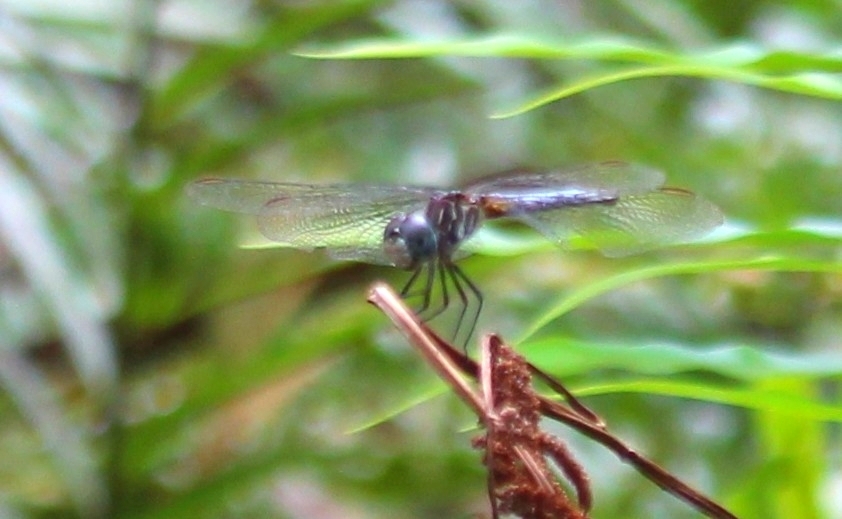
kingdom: Animalia
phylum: Arthropoda
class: Insecta
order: Odonata
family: Libellulidae
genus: Pachydiplax
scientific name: Pachydiplax longipennis
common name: Blue dasher
